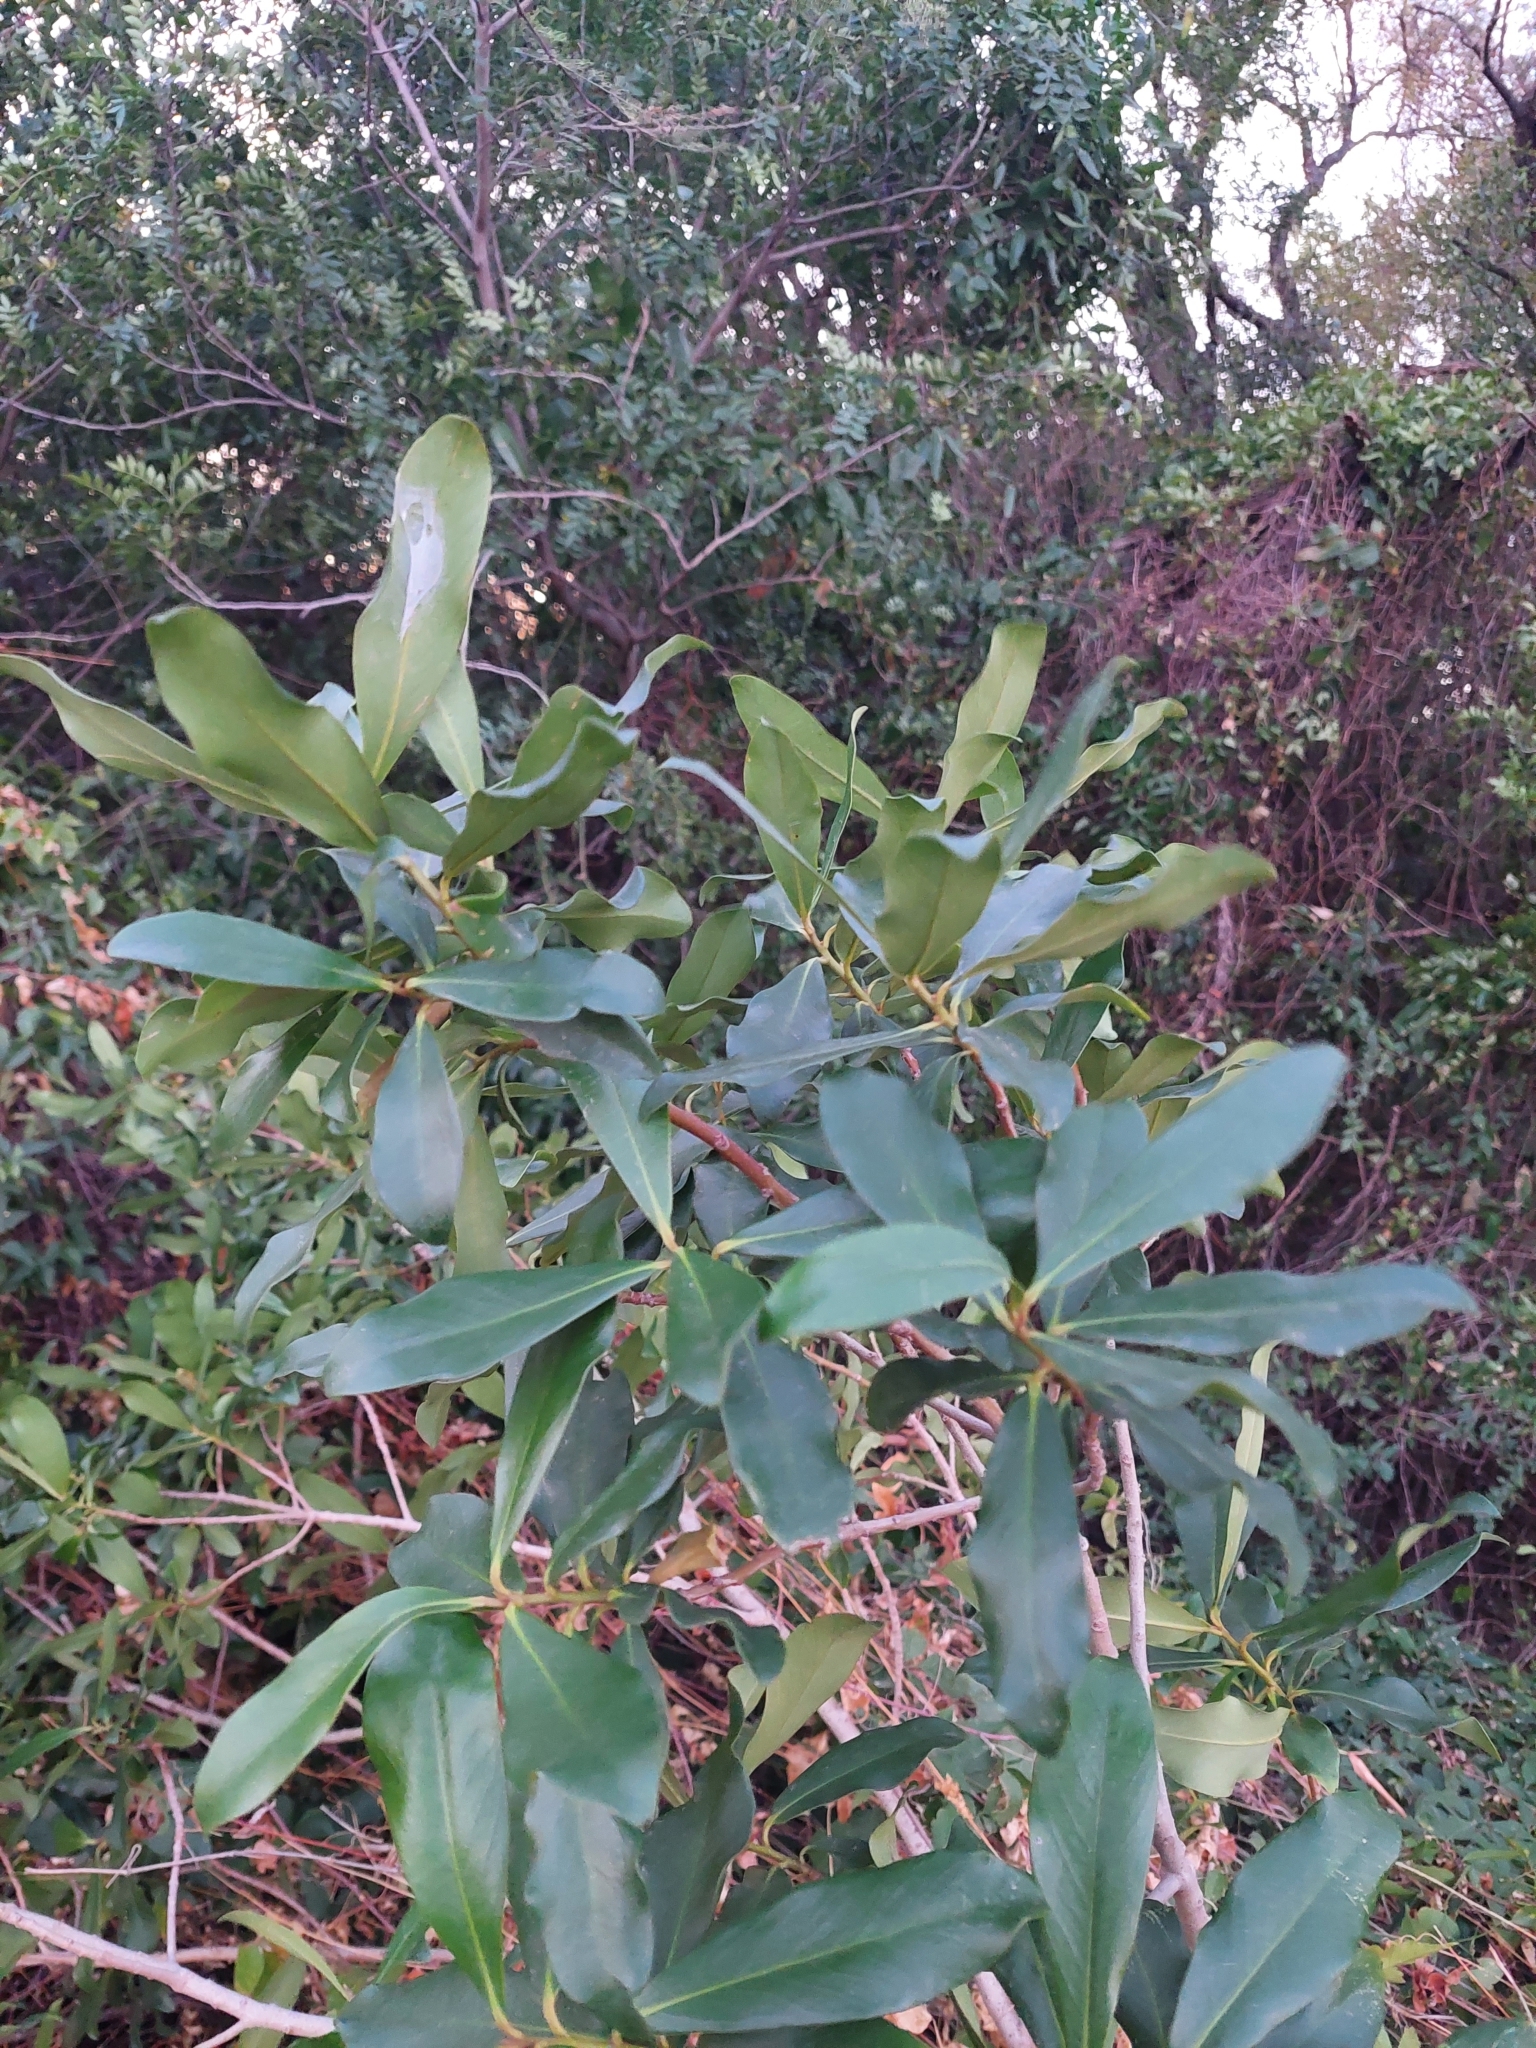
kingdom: Plantae
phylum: Tracheophyta
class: Magnoliopsida
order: Ericales
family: Primulaceae
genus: Myrsine
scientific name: Myrsine laetevirens
